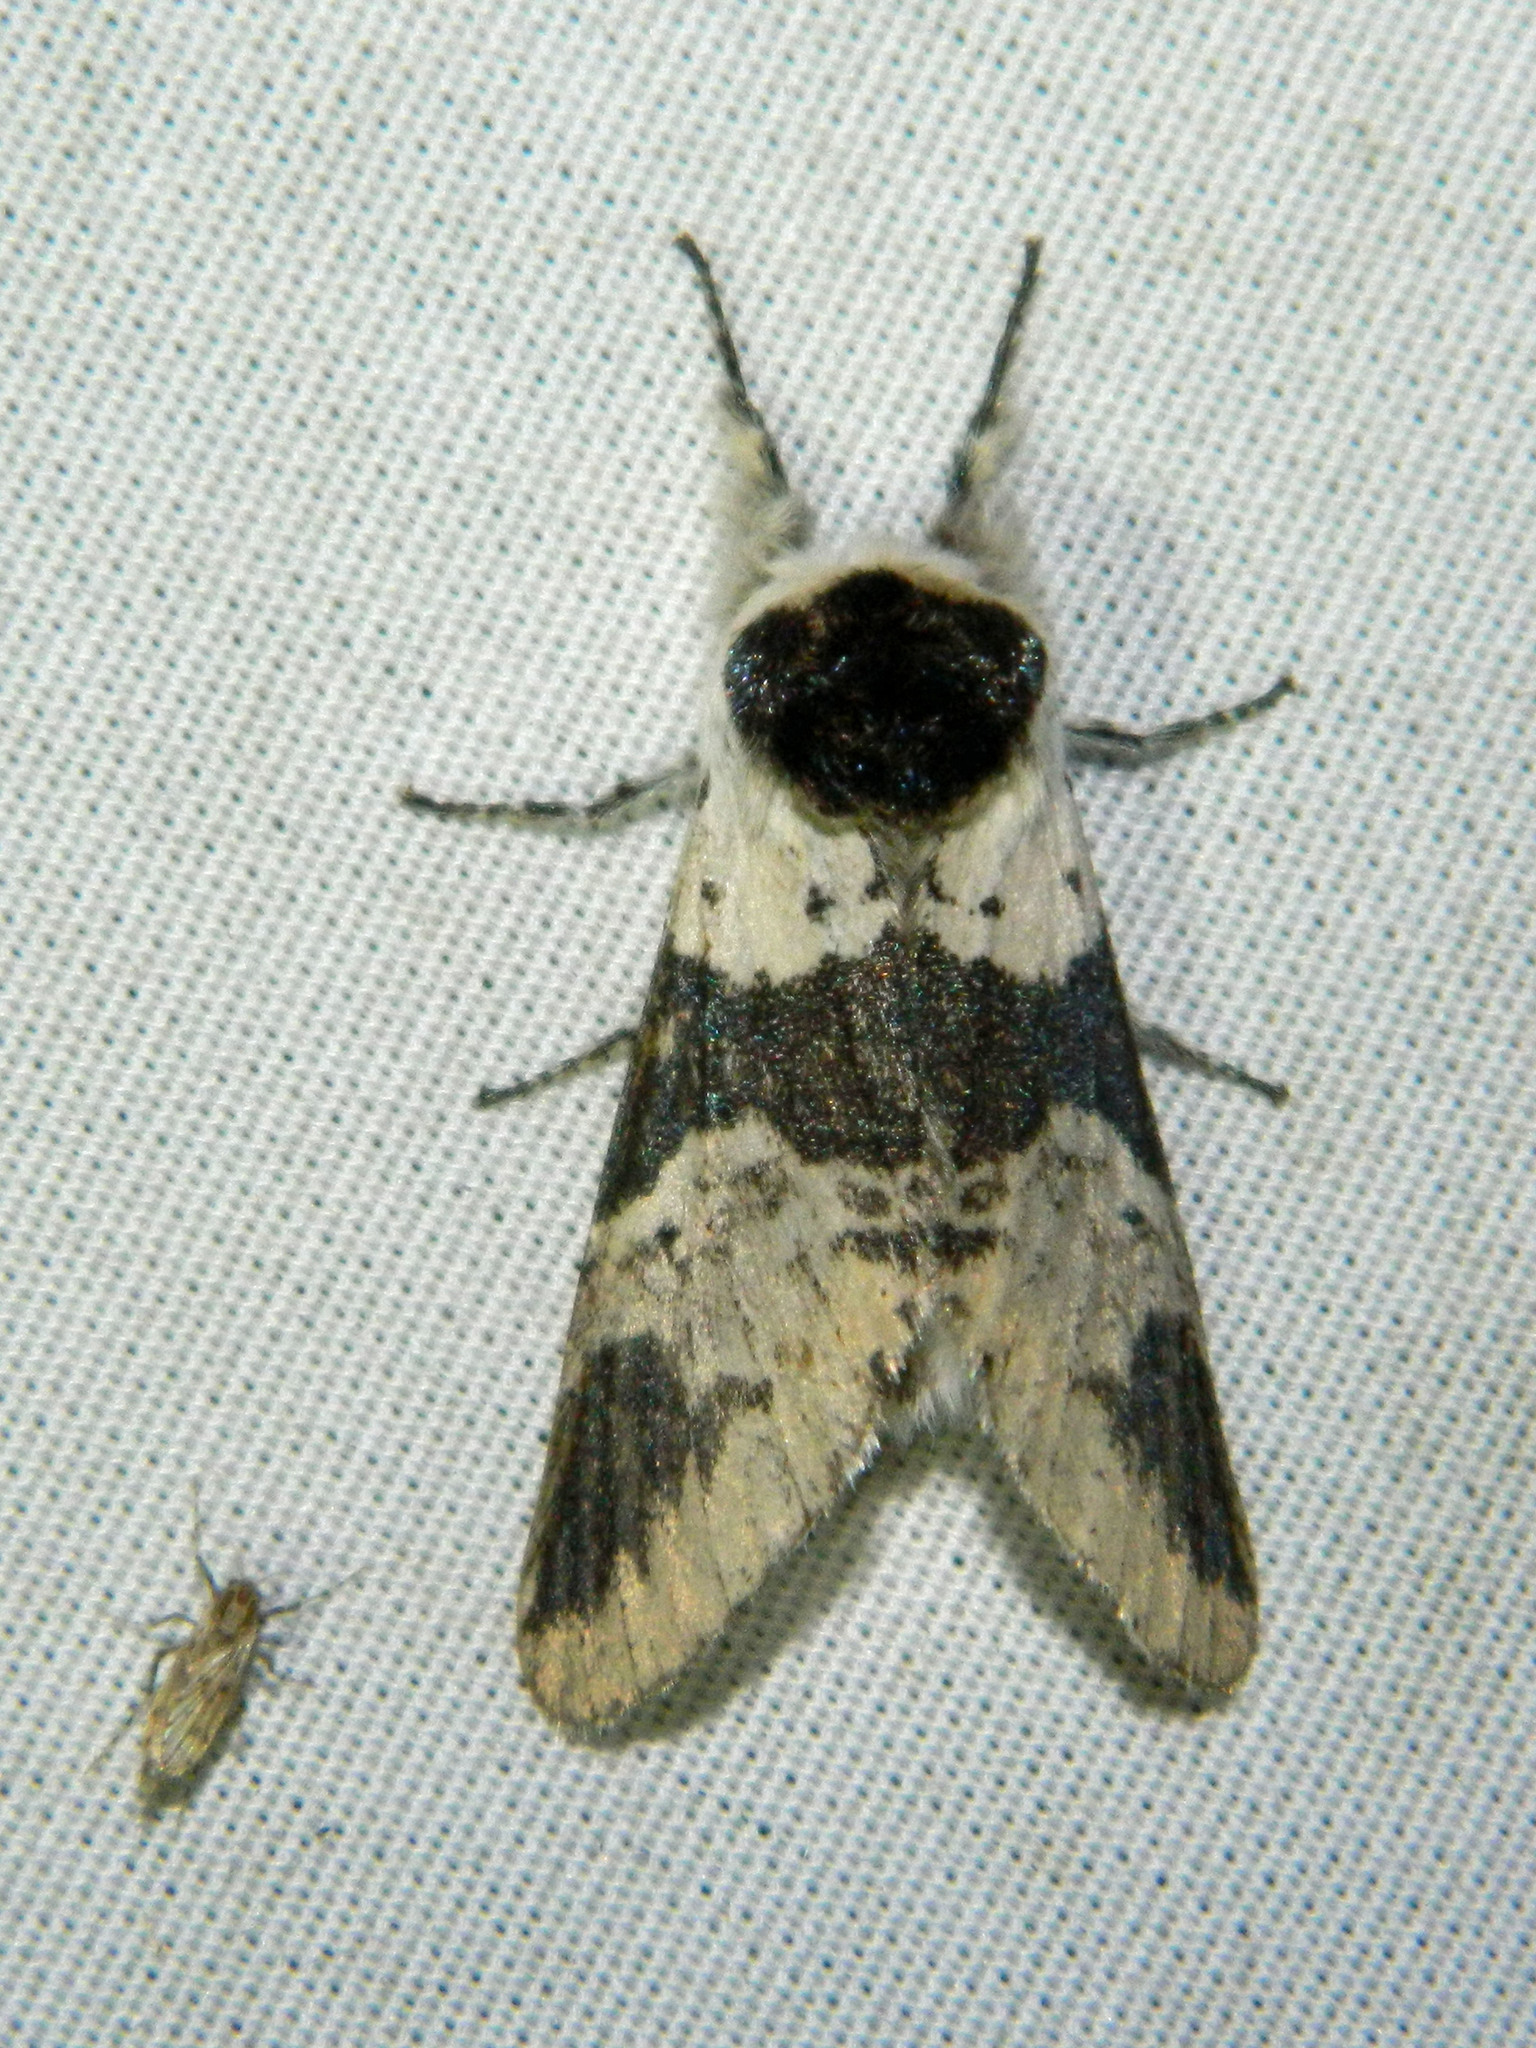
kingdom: Animalia
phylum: Arthropoda
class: Insecta
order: Lepidoptera
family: Notodontidae
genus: Furcula
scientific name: Furcula modesta
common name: Modest furcula moth
